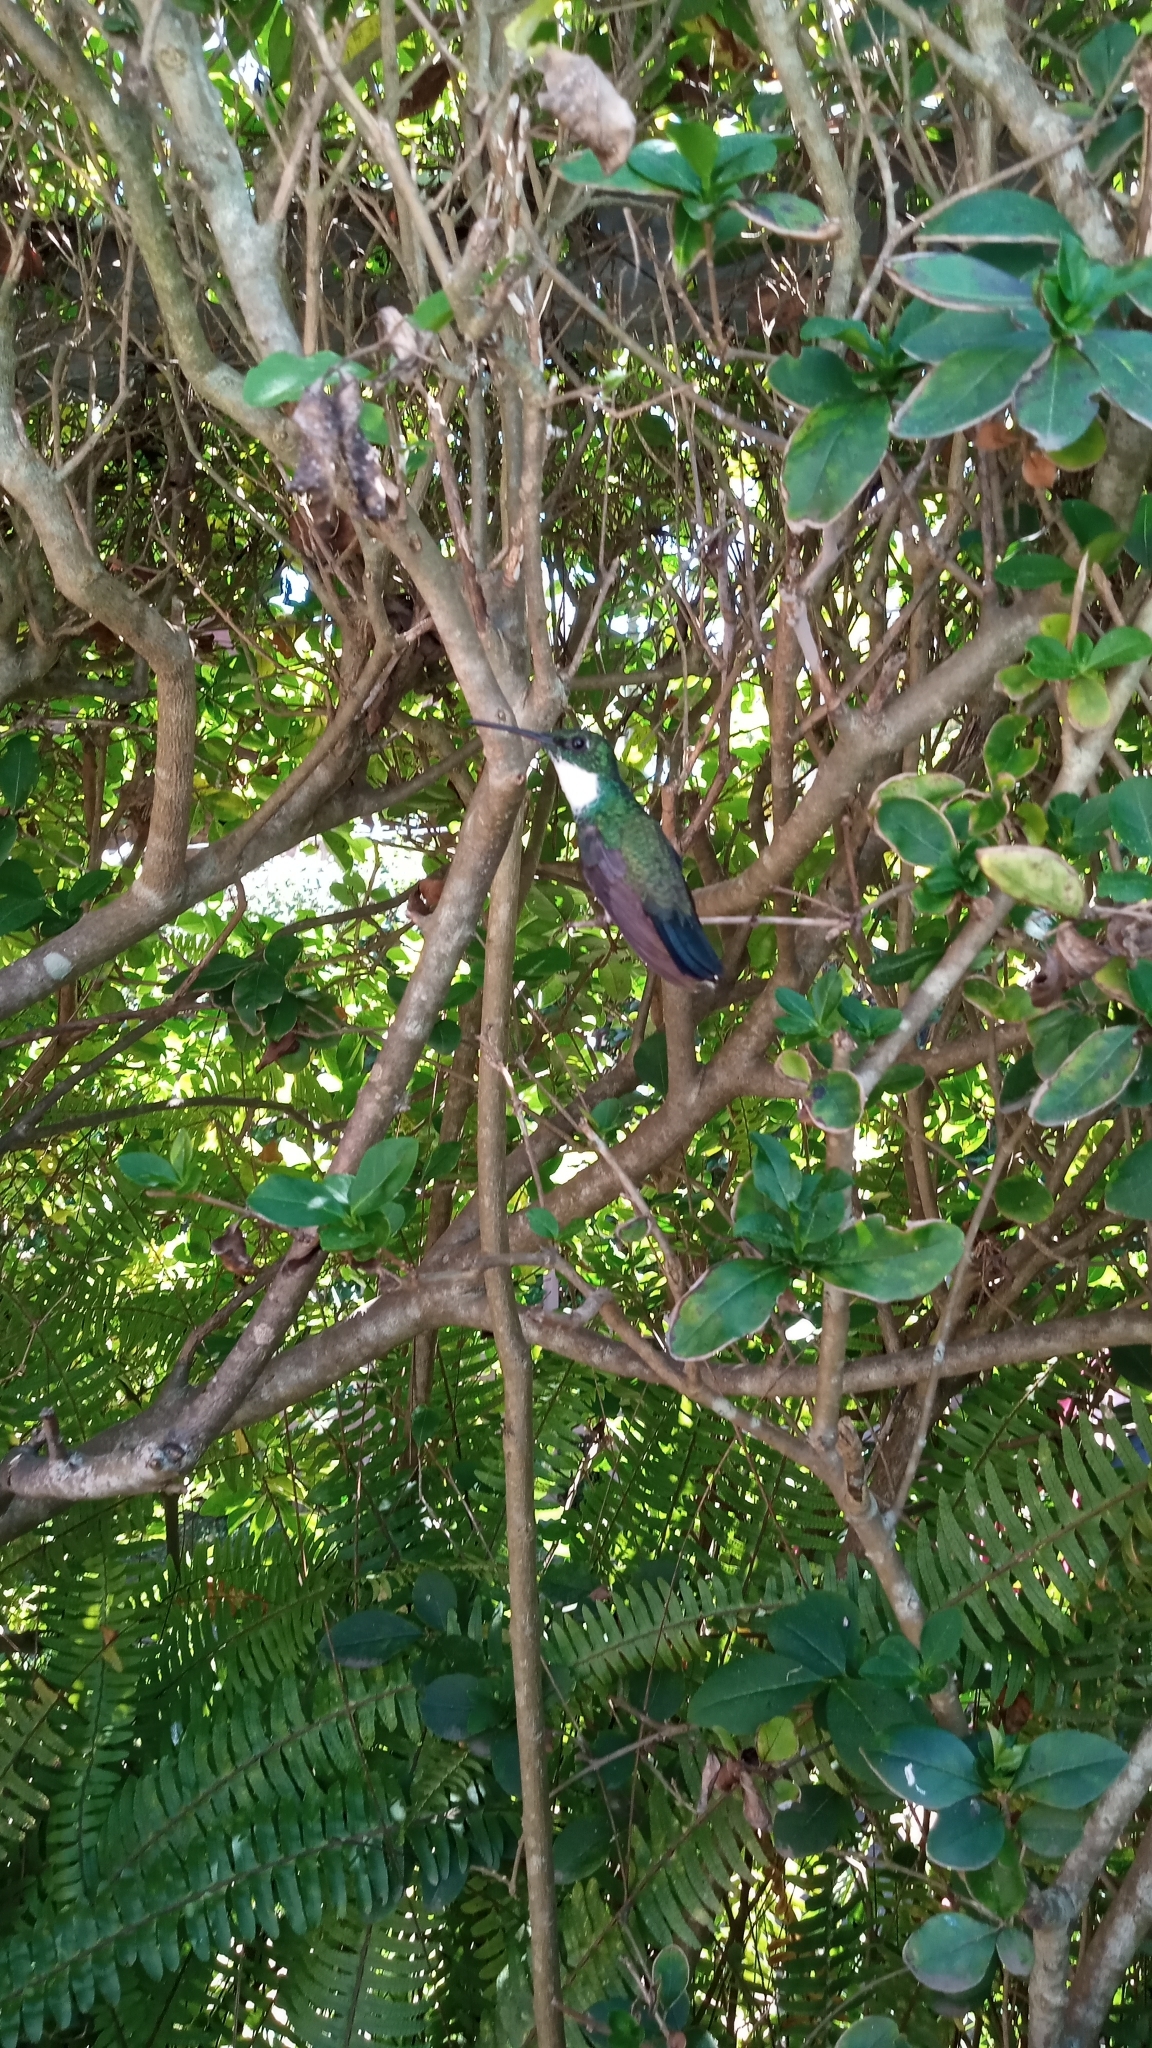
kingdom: Animalia
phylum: Chordata
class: Aves
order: Apodiformes
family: Trochilidae
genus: Leucochloris
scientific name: Leucochloris albicollis
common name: White-throated hummingbird
